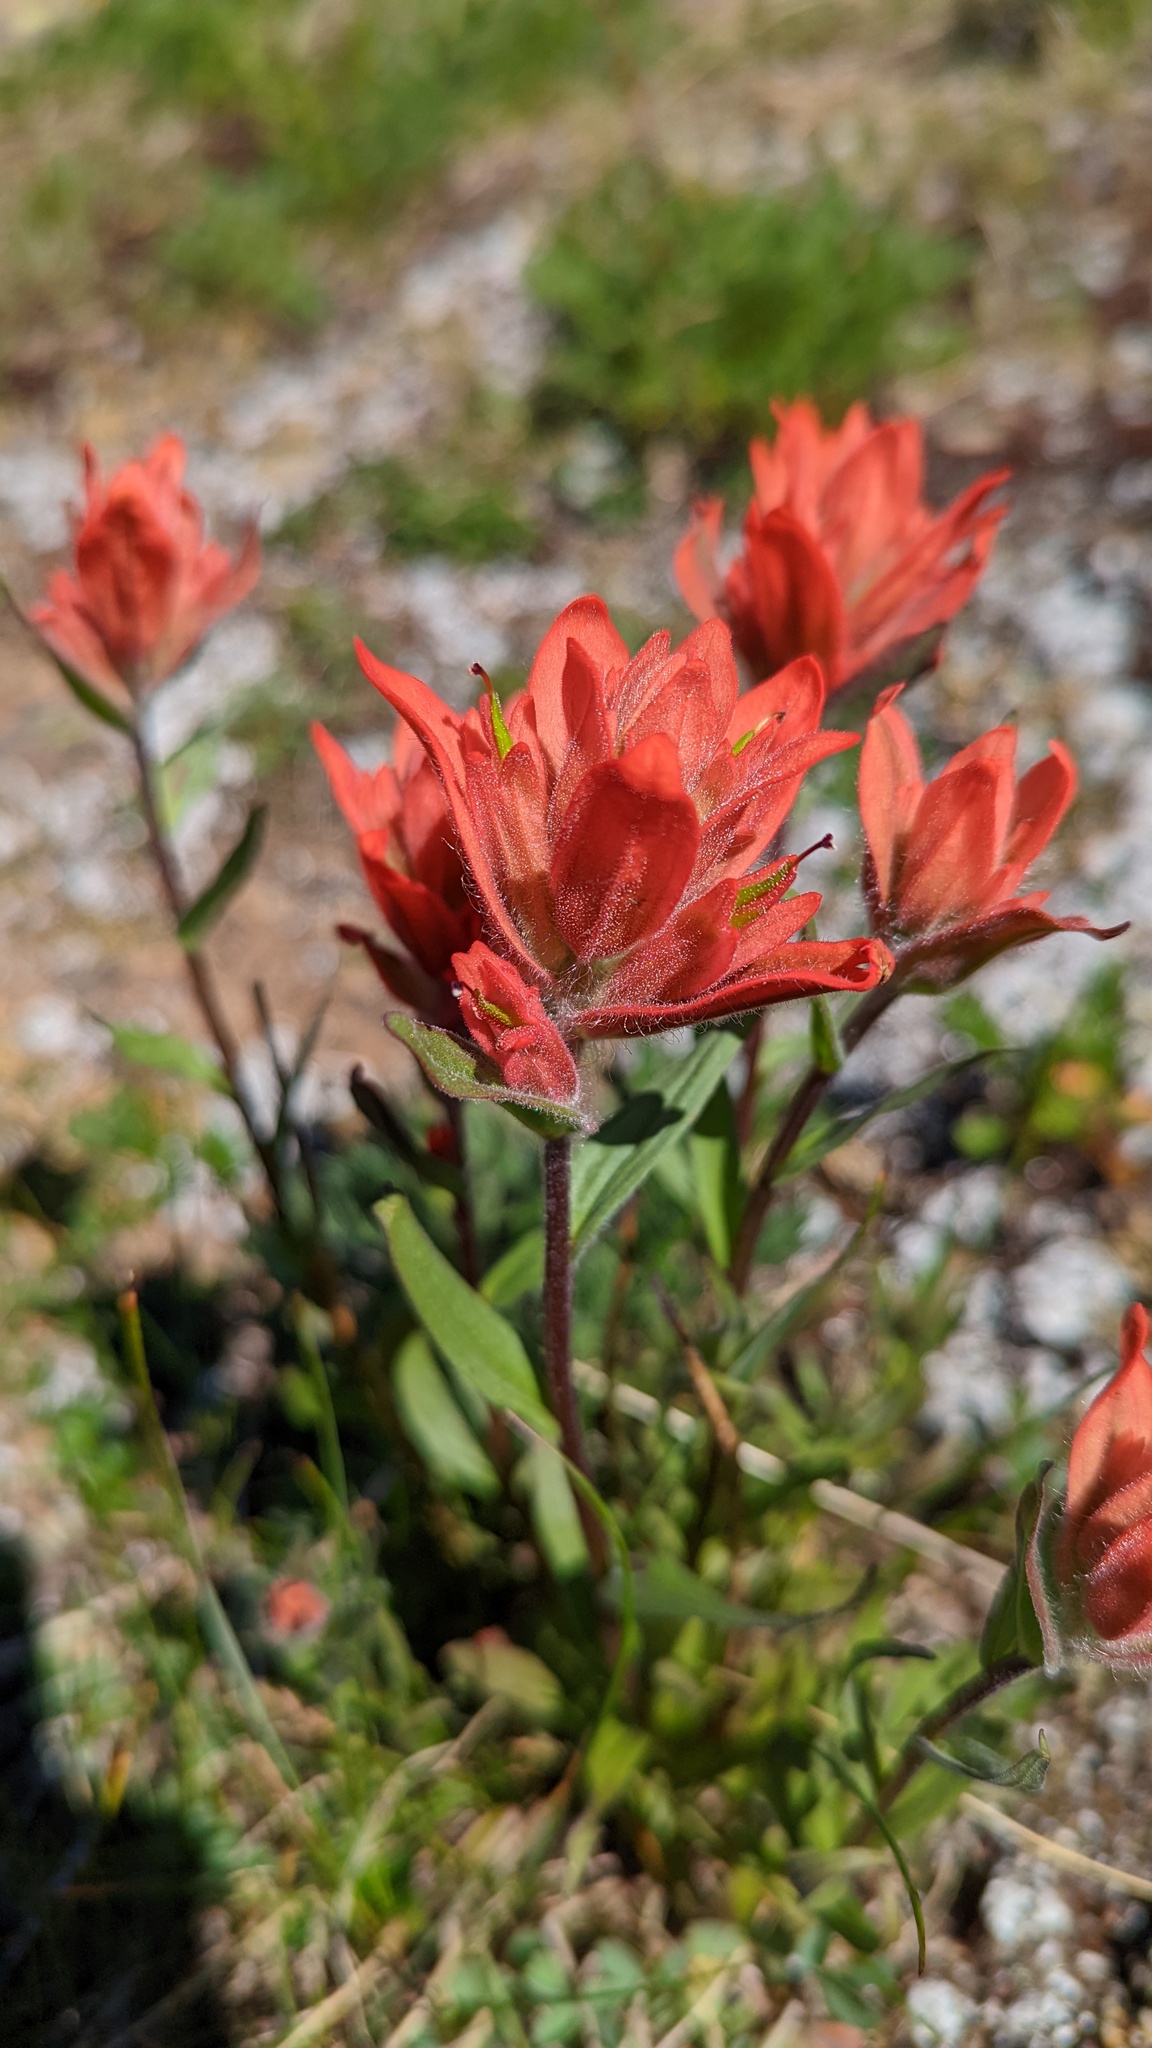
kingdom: Plantae
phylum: Tracheophyta
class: Magnoliopsida
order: Lamiales
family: Orobanchaceae
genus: Castilleja
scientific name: Castilleja miniata
